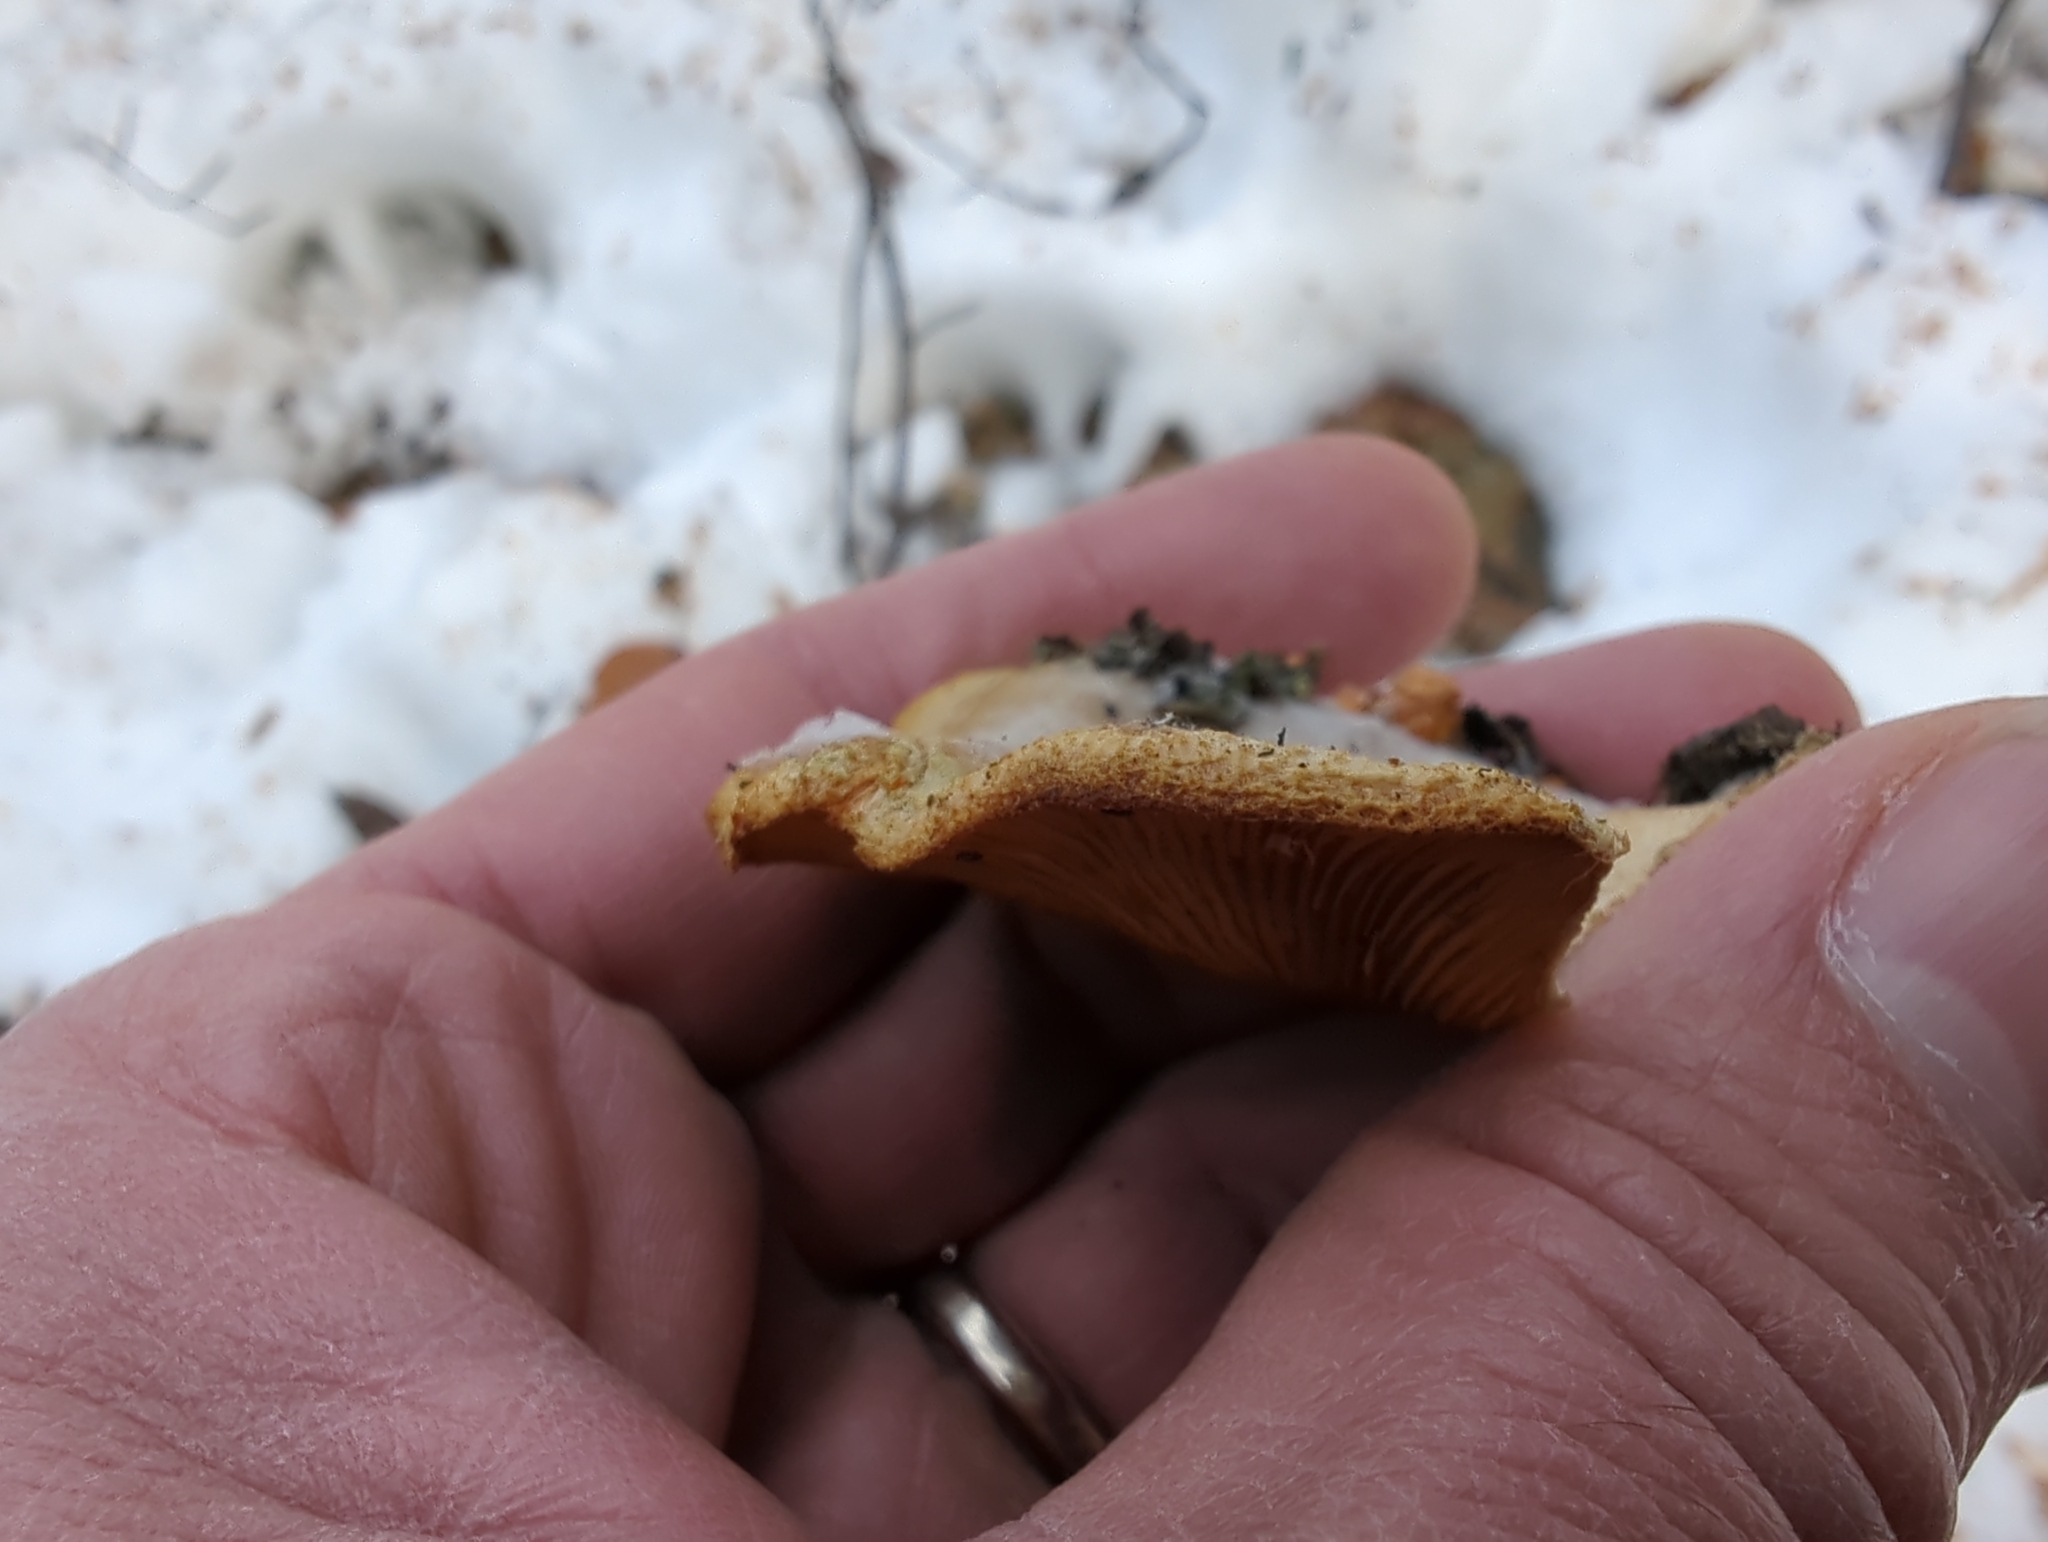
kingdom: Fungi
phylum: Basidiomycota
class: Agaricomycetes
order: Agaricales
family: Phyllotopsidaceae
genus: Phyllotopsis
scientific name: Phyllotopsis nidulans
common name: Orange mock oyster
